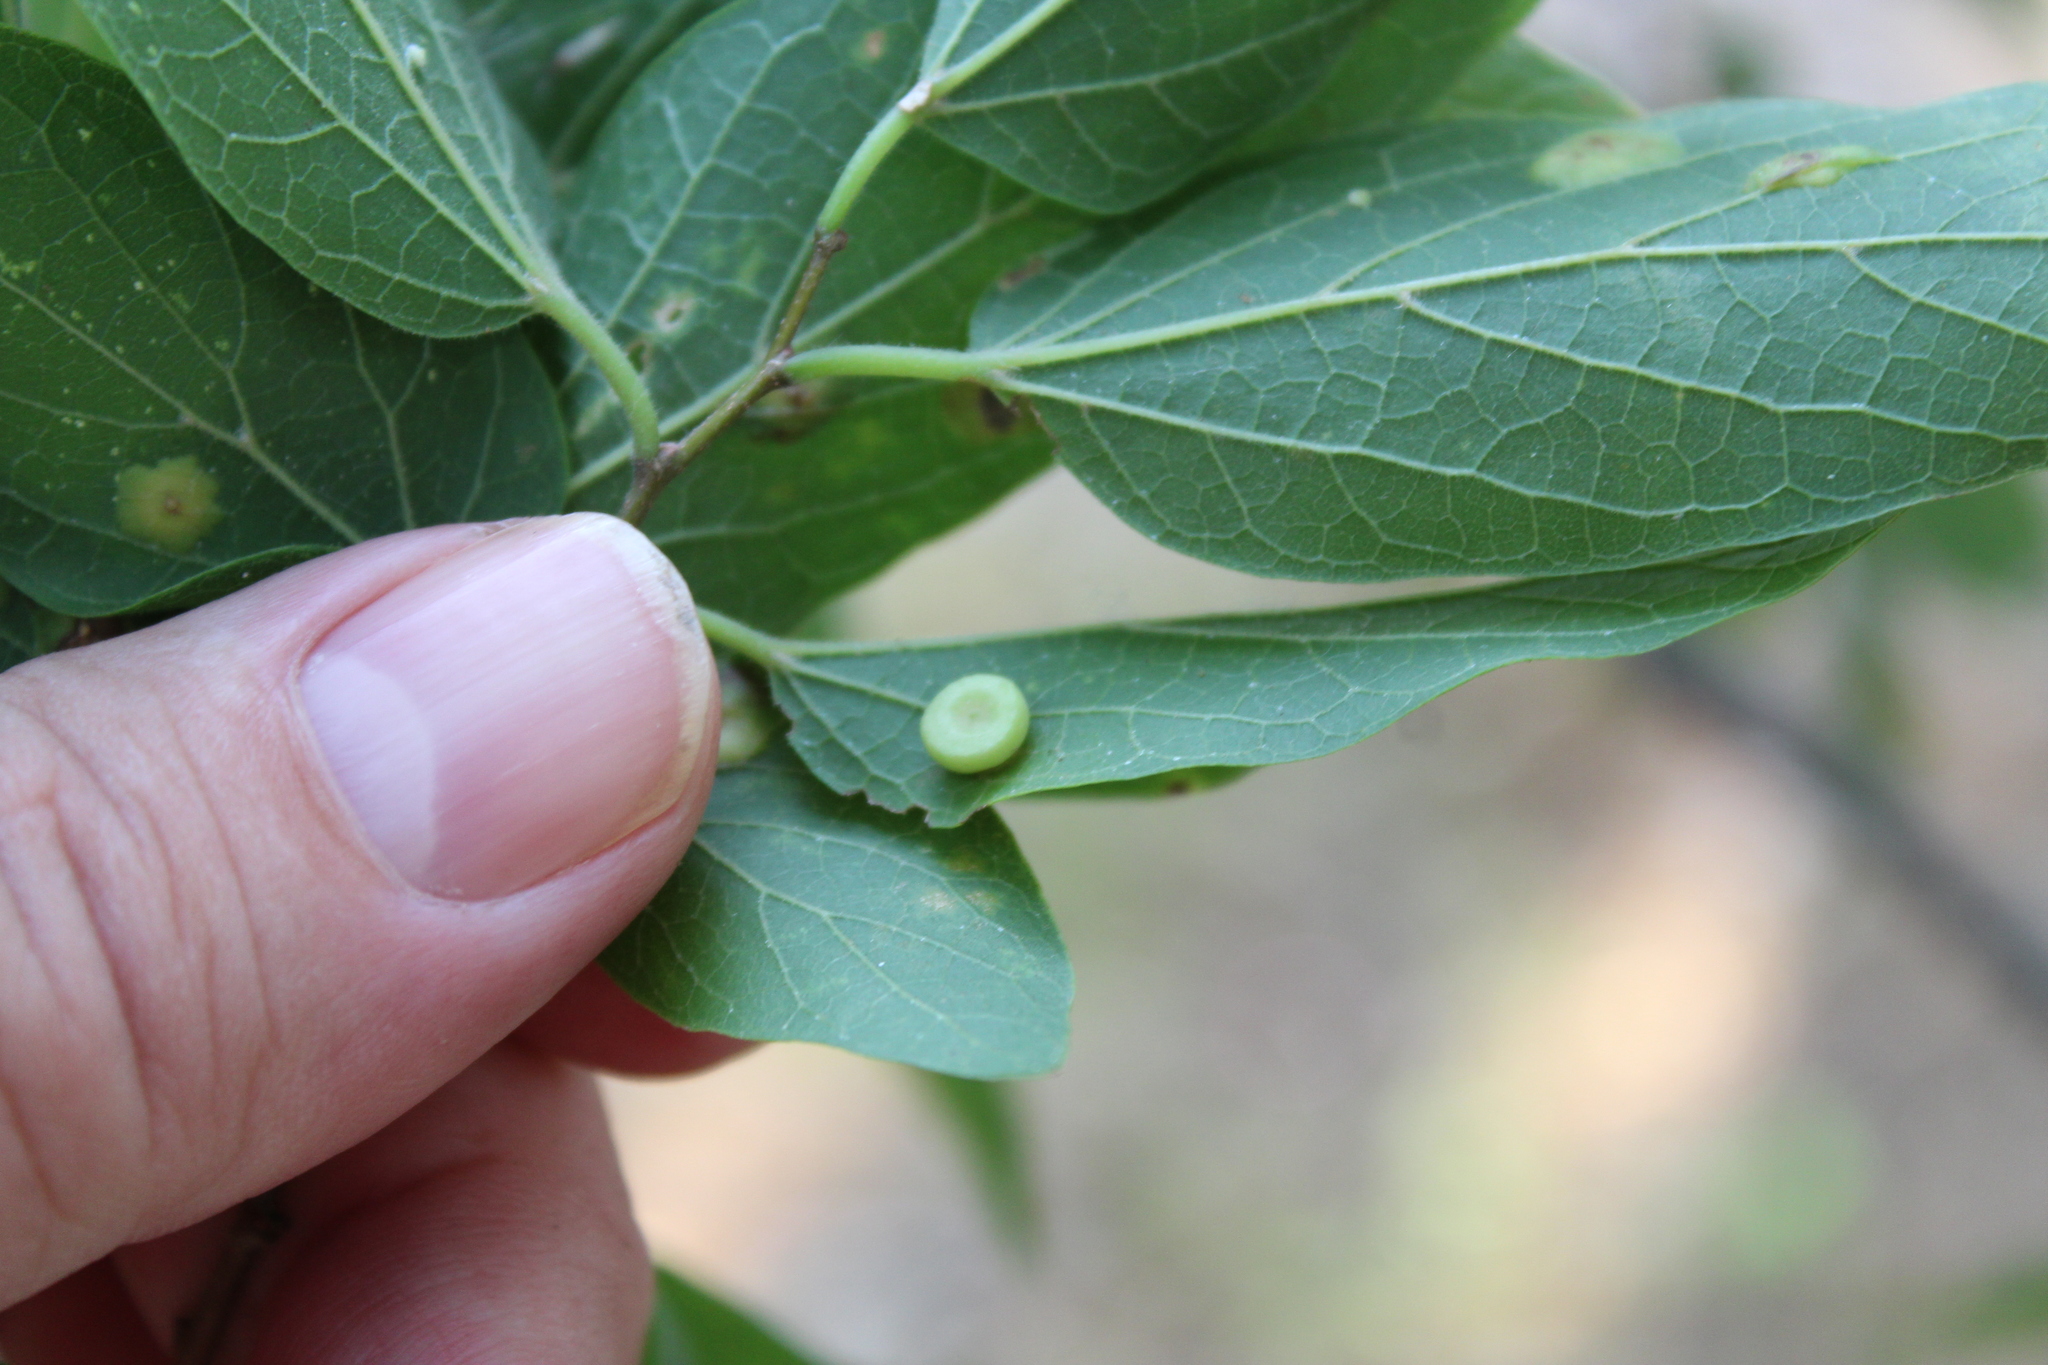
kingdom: Animalia
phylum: Arthropoda
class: Insecta
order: Hemiptera
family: Aphalaridae
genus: Pachypsylla
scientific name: Pachypsylla celtidismamma
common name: Hackberry nipplegall psyllid
